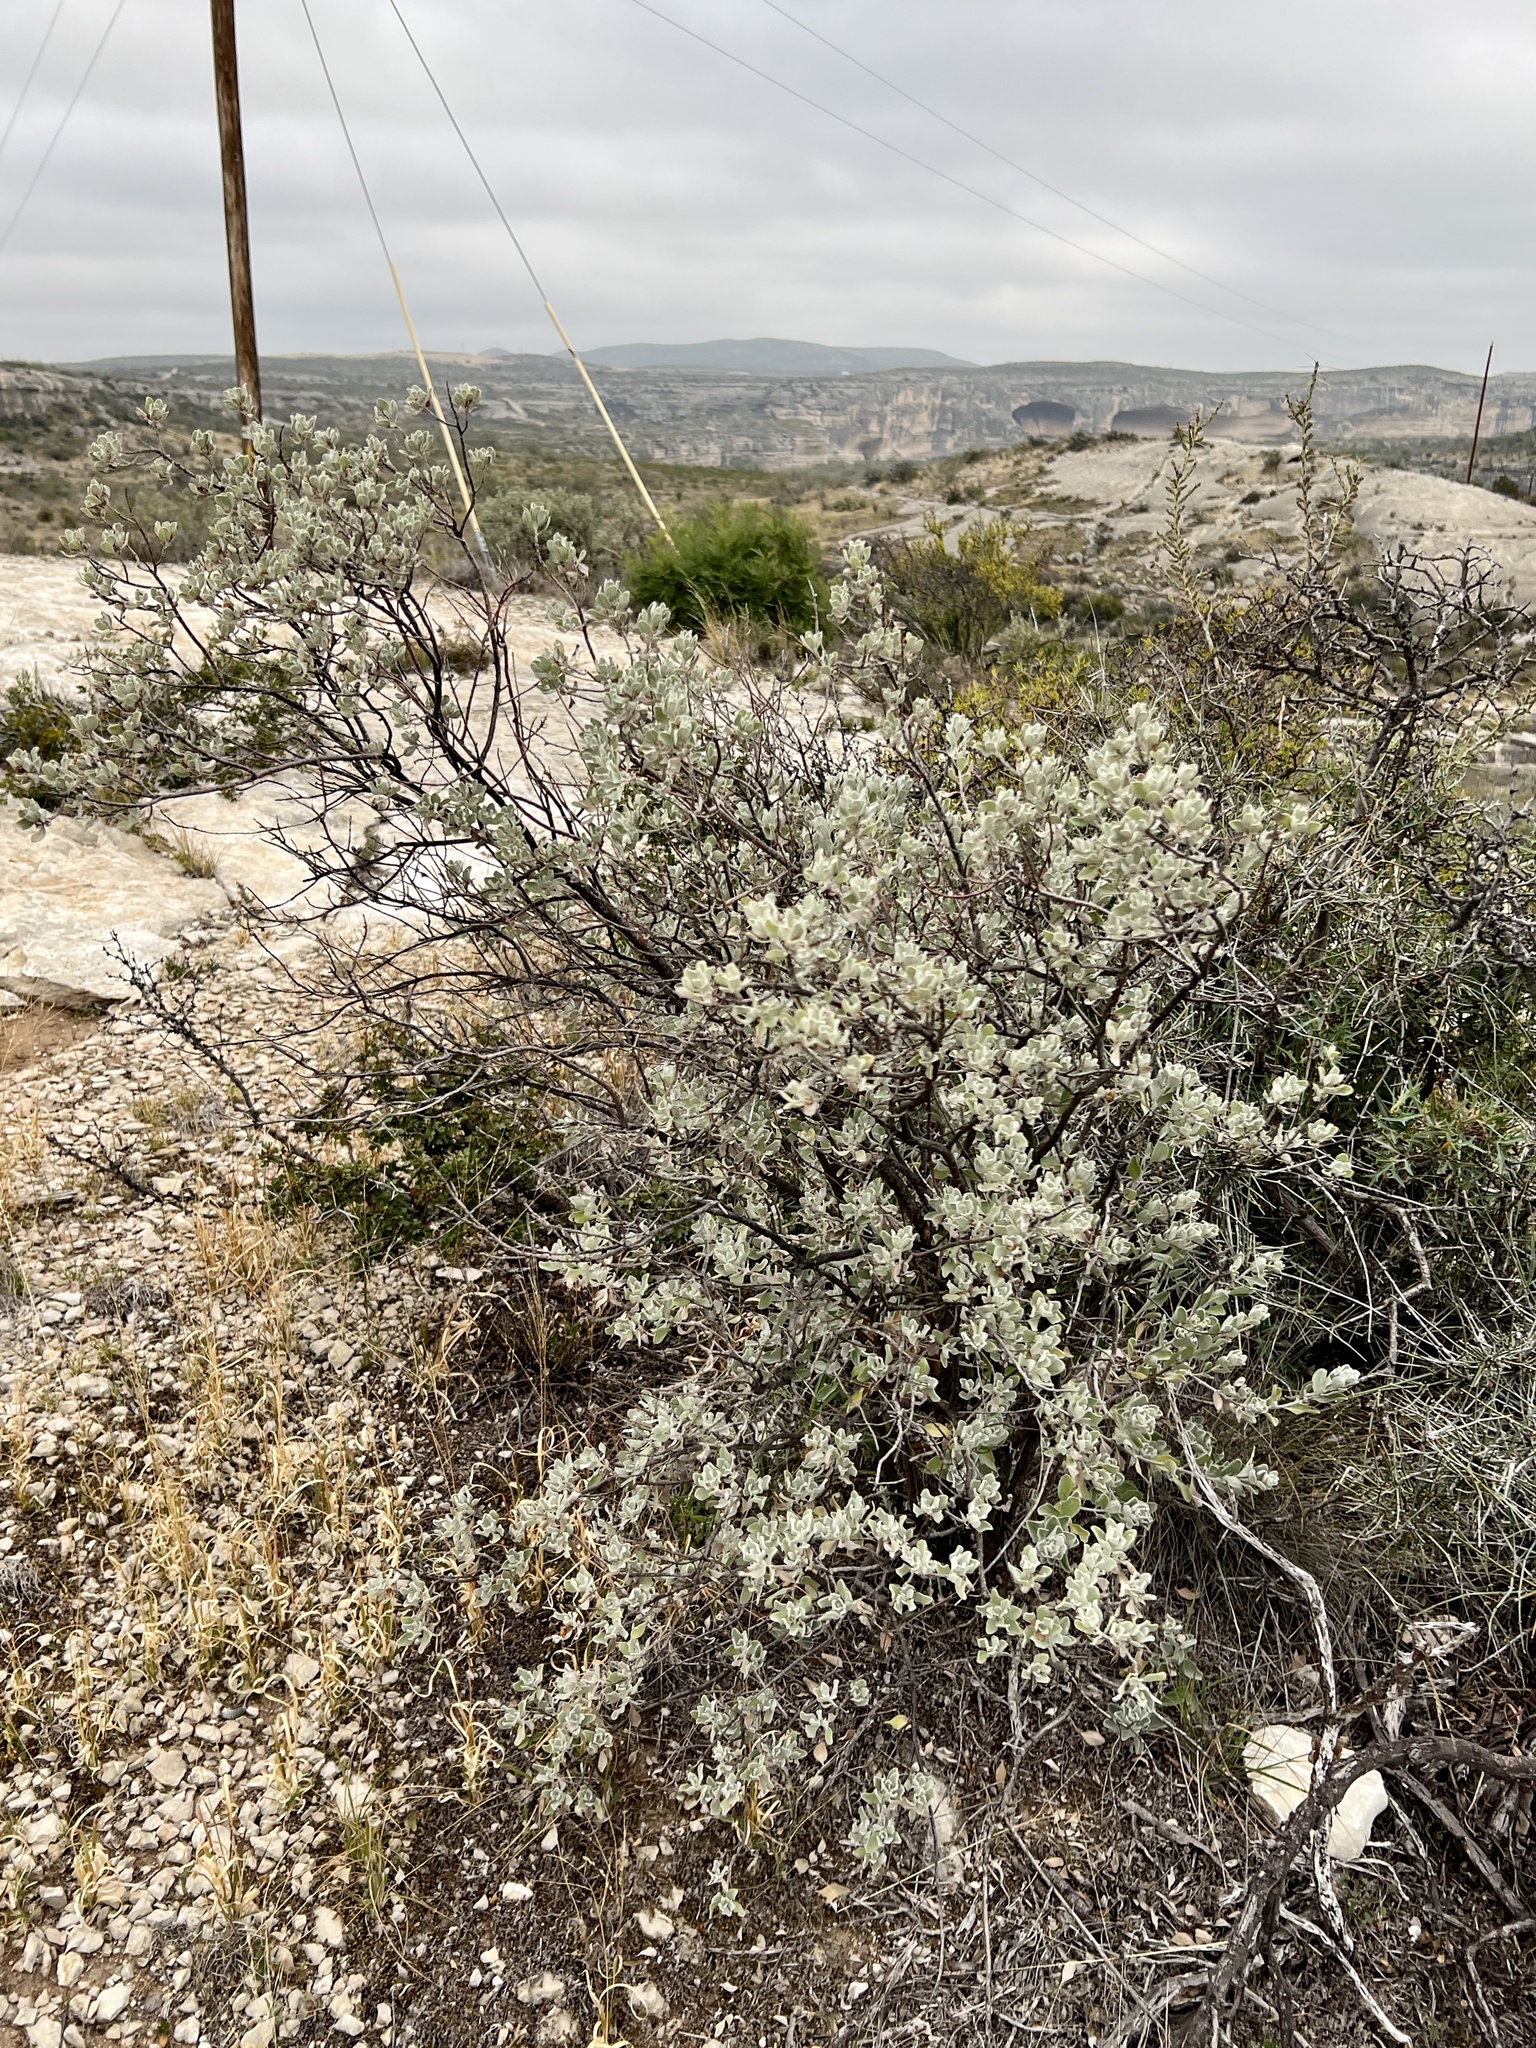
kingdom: Plantae
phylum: Tracheophyta
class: Magnoliopsida
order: Lamiales
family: Scrophulariaceae
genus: Leucophyllum
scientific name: Leucophyllum frutescens
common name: Texas silverleaf
